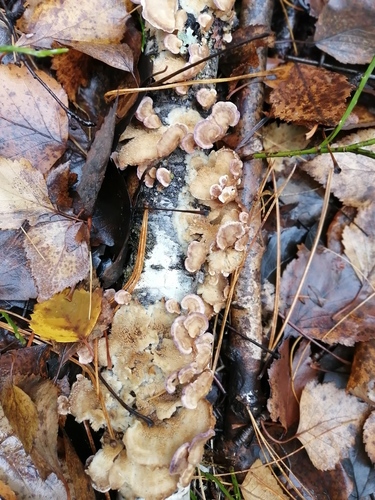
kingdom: Fungi
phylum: Basidiomycota
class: Agaricomycetes
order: Hymenochaetales
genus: Trichaptum
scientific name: Trichaptum biforme
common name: Violet-toothed polypore
